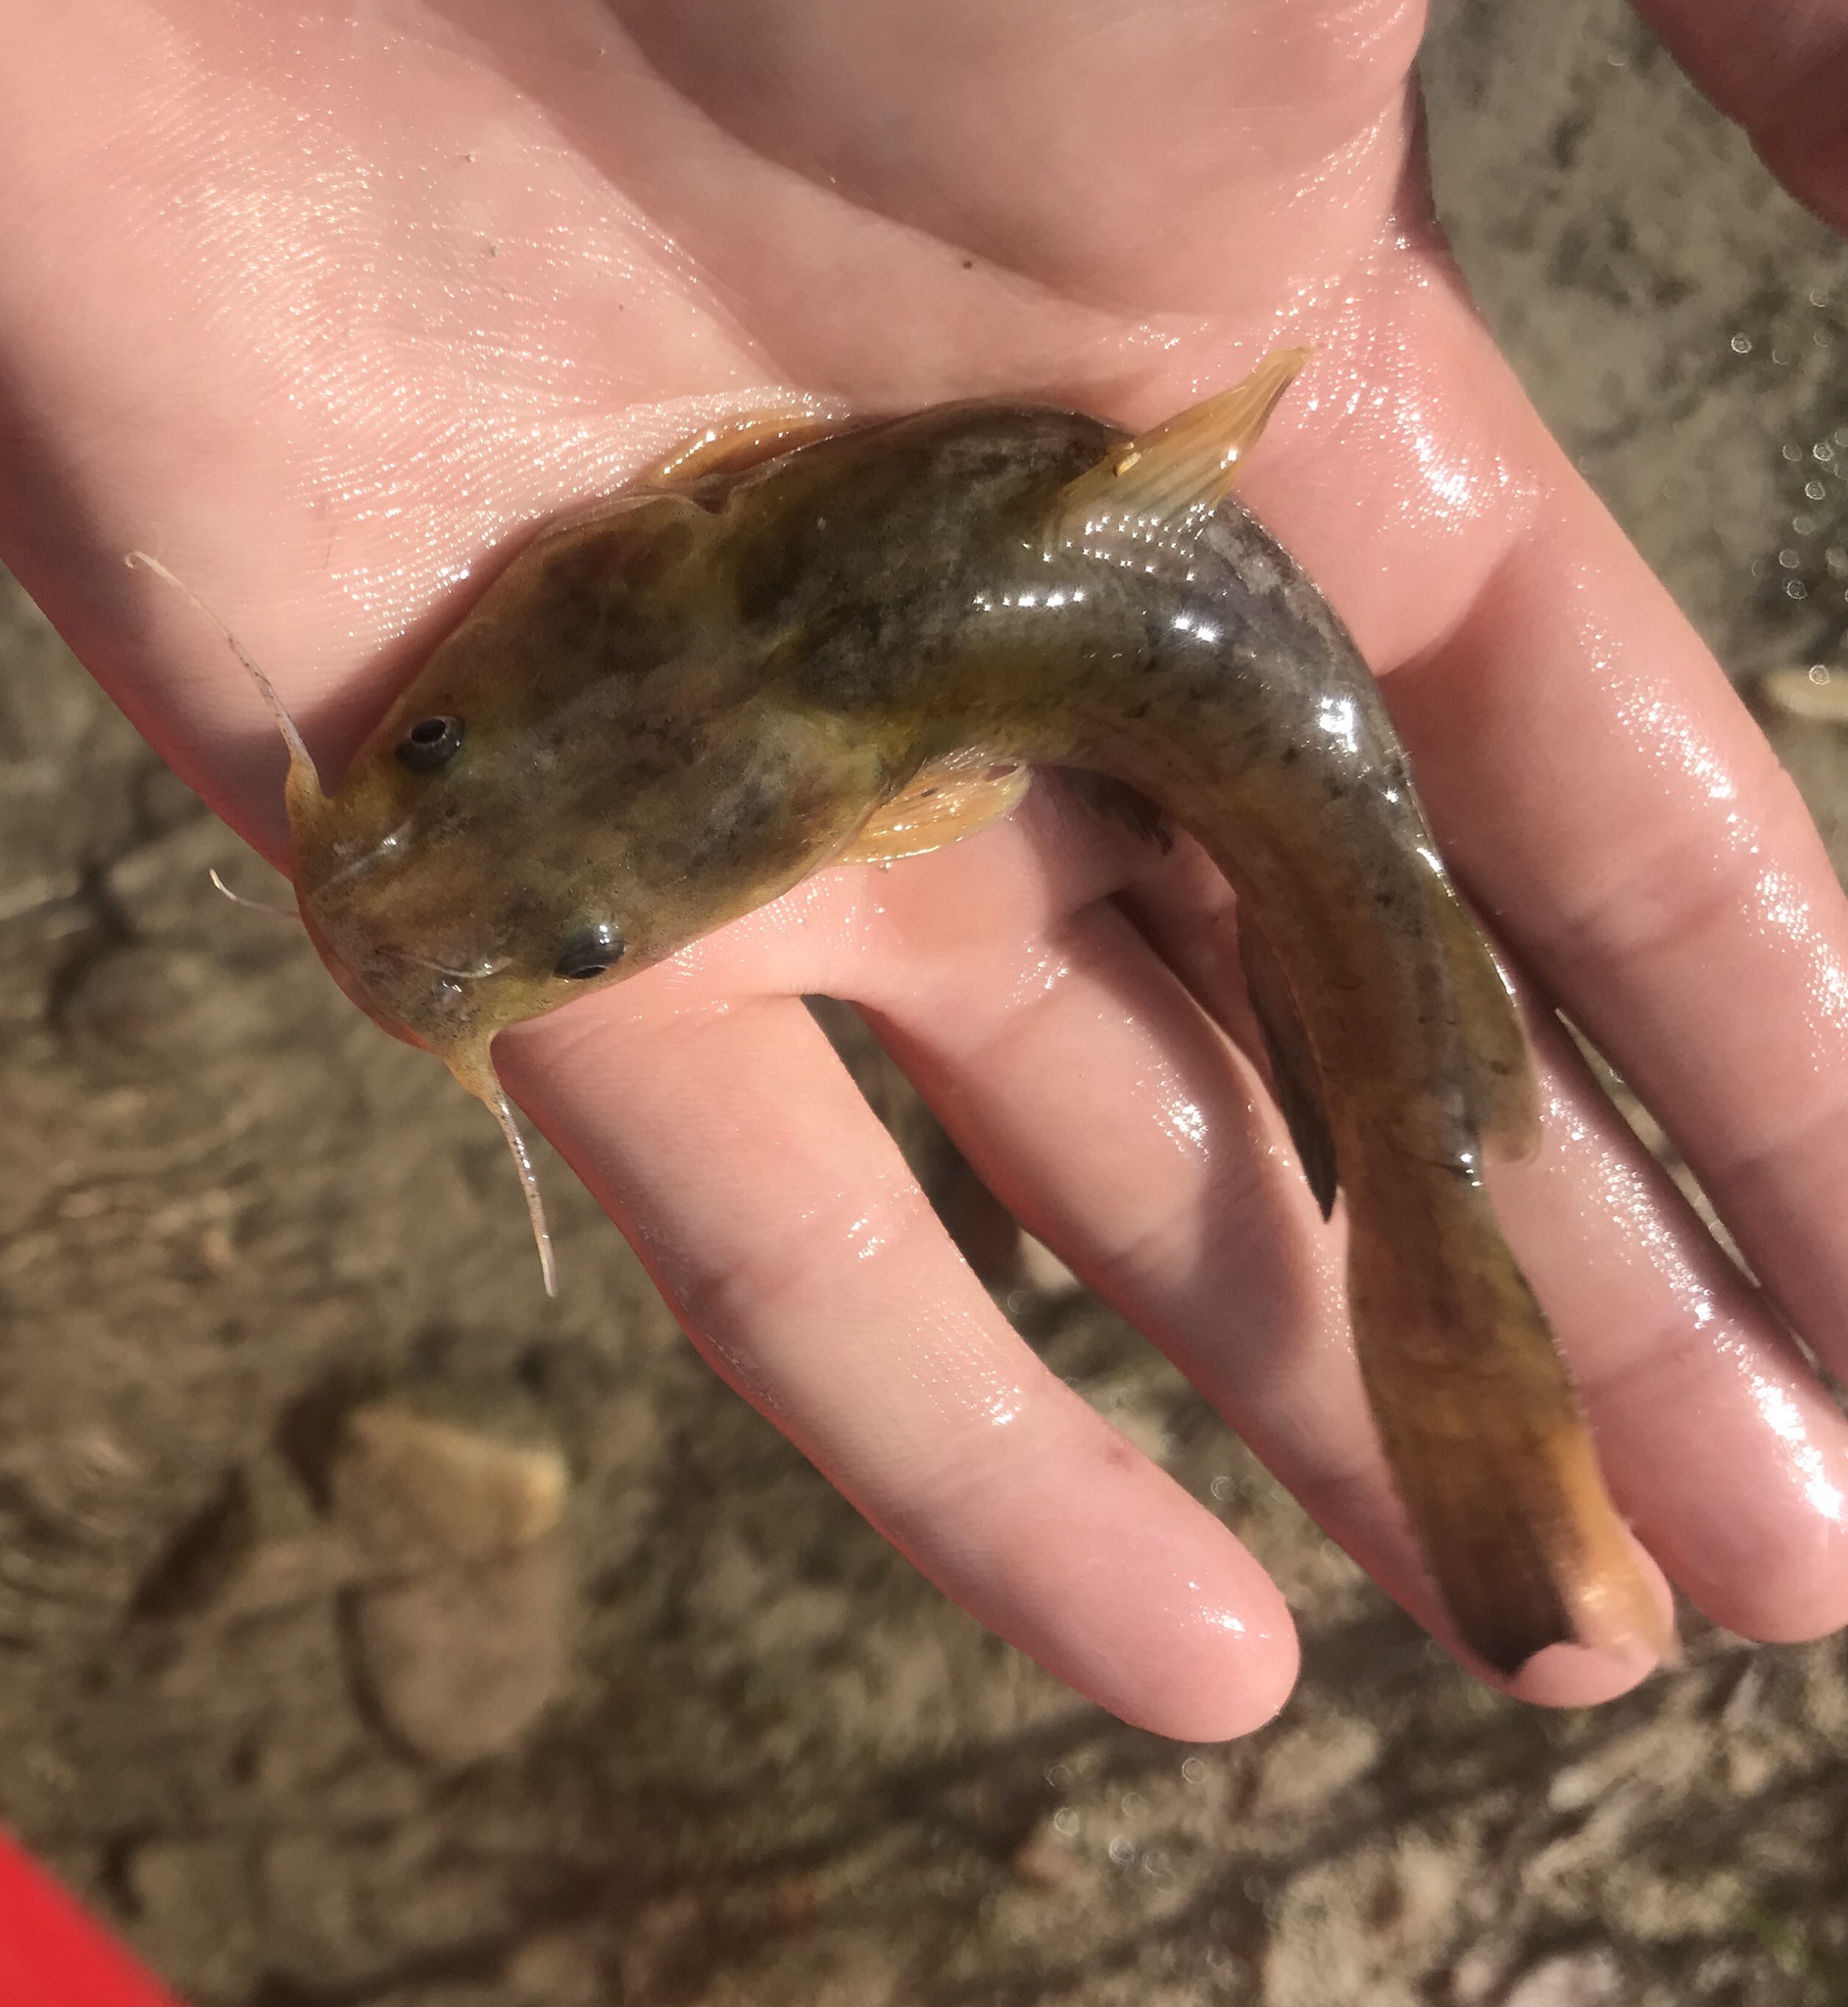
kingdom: Animalia
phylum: Chordata
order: Siluriformes
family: Ictaluridae
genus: Pylodictis
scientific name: Pylodictis olivaris
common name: Flathead catfish
